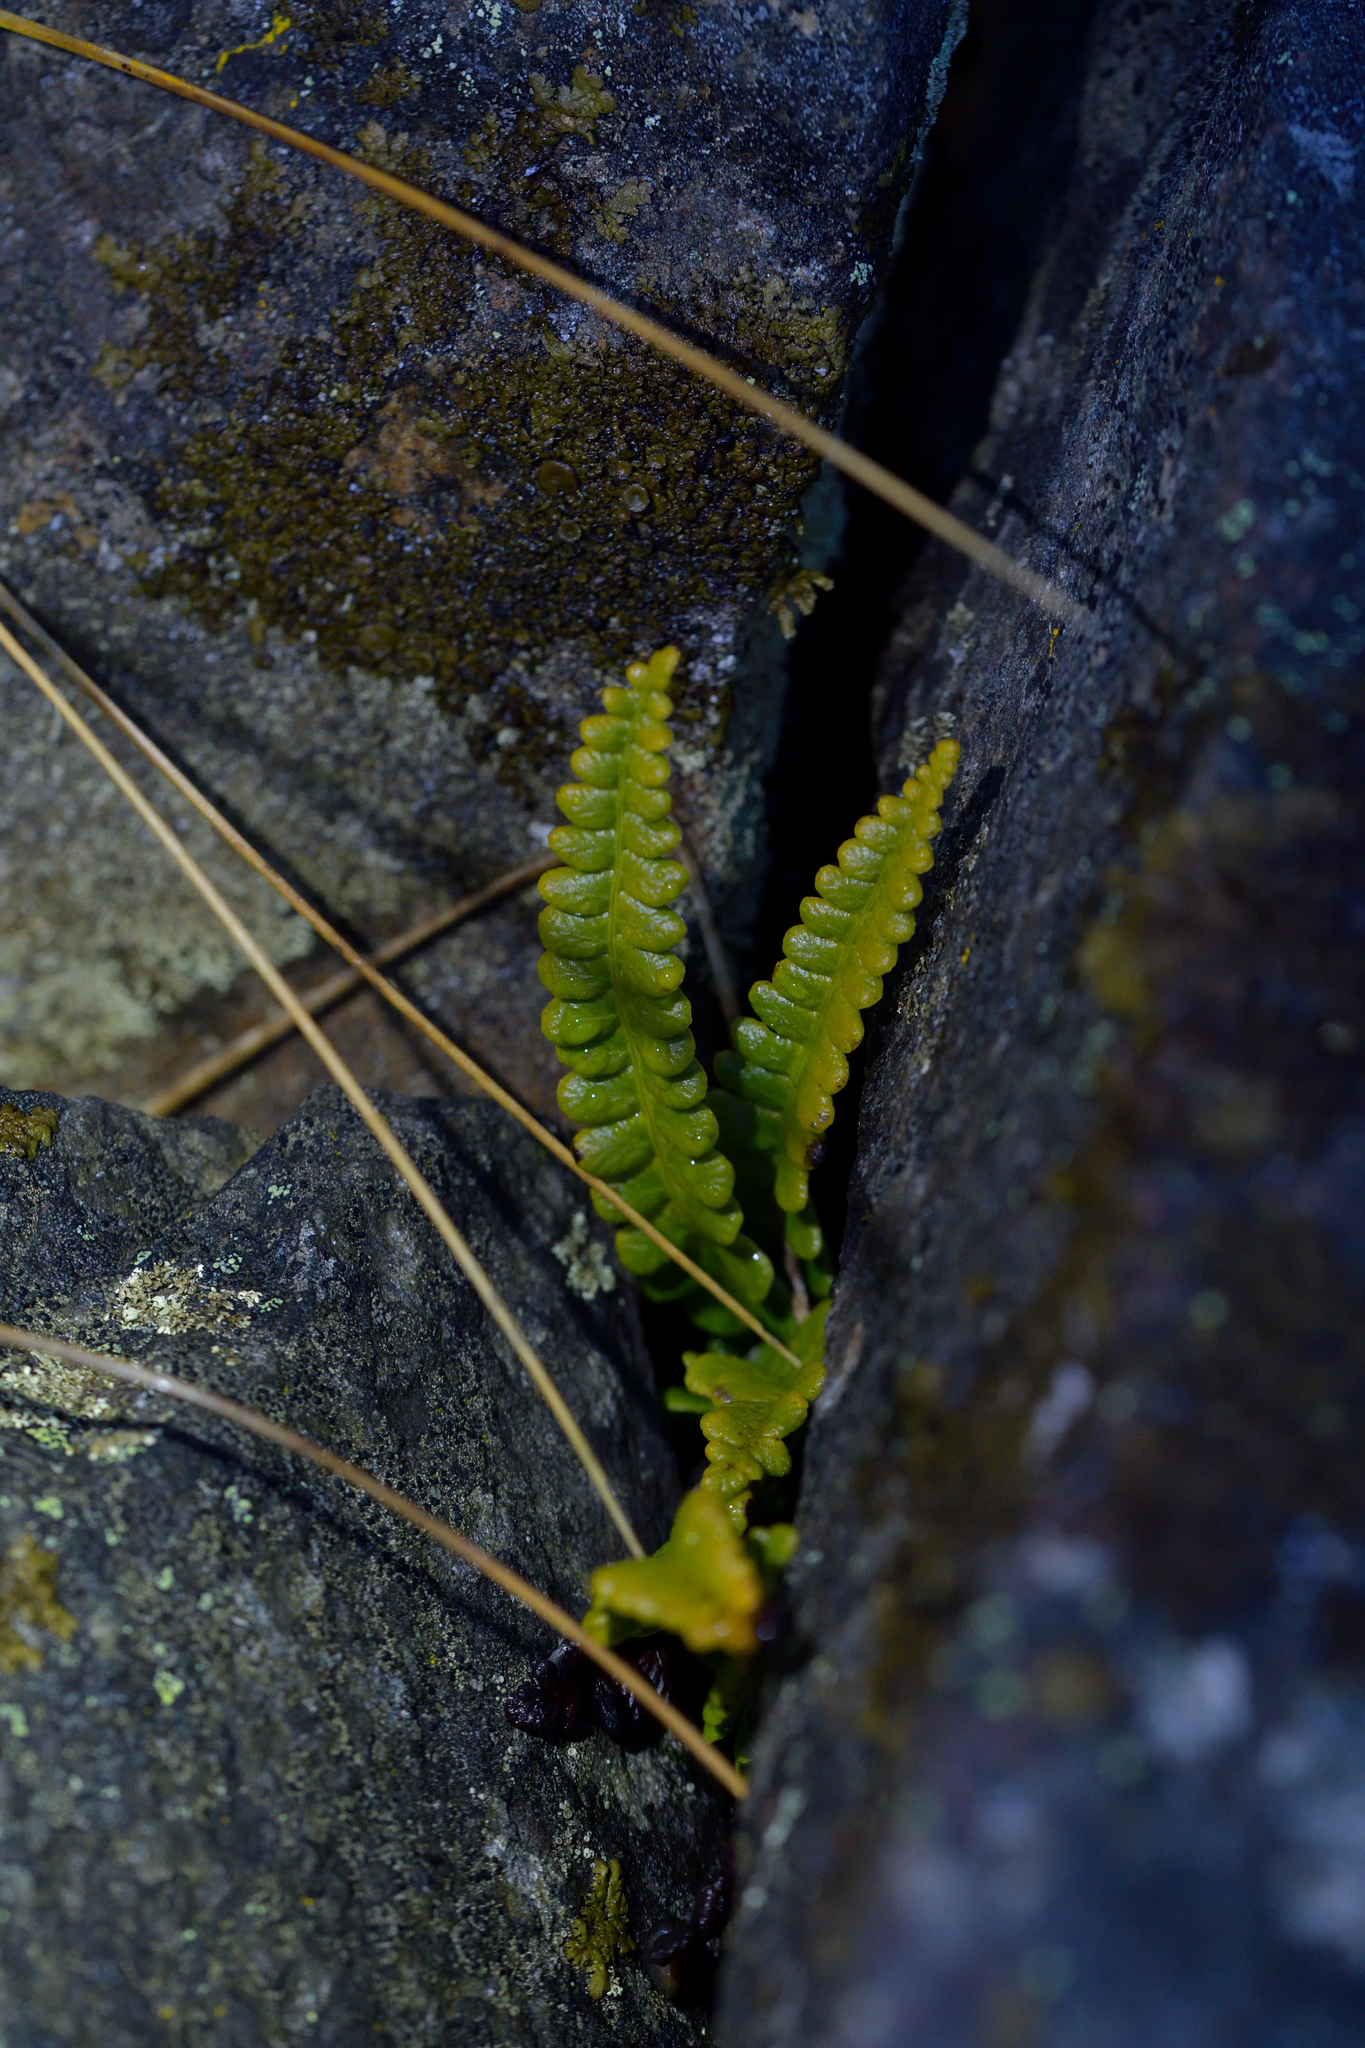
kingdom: Plantae
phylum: Tracheophyta
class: Polypodiopsida
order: Polypodiales
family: Blechnaceae
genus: Austroblechnum
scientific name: Austroblechnum penna-marina
